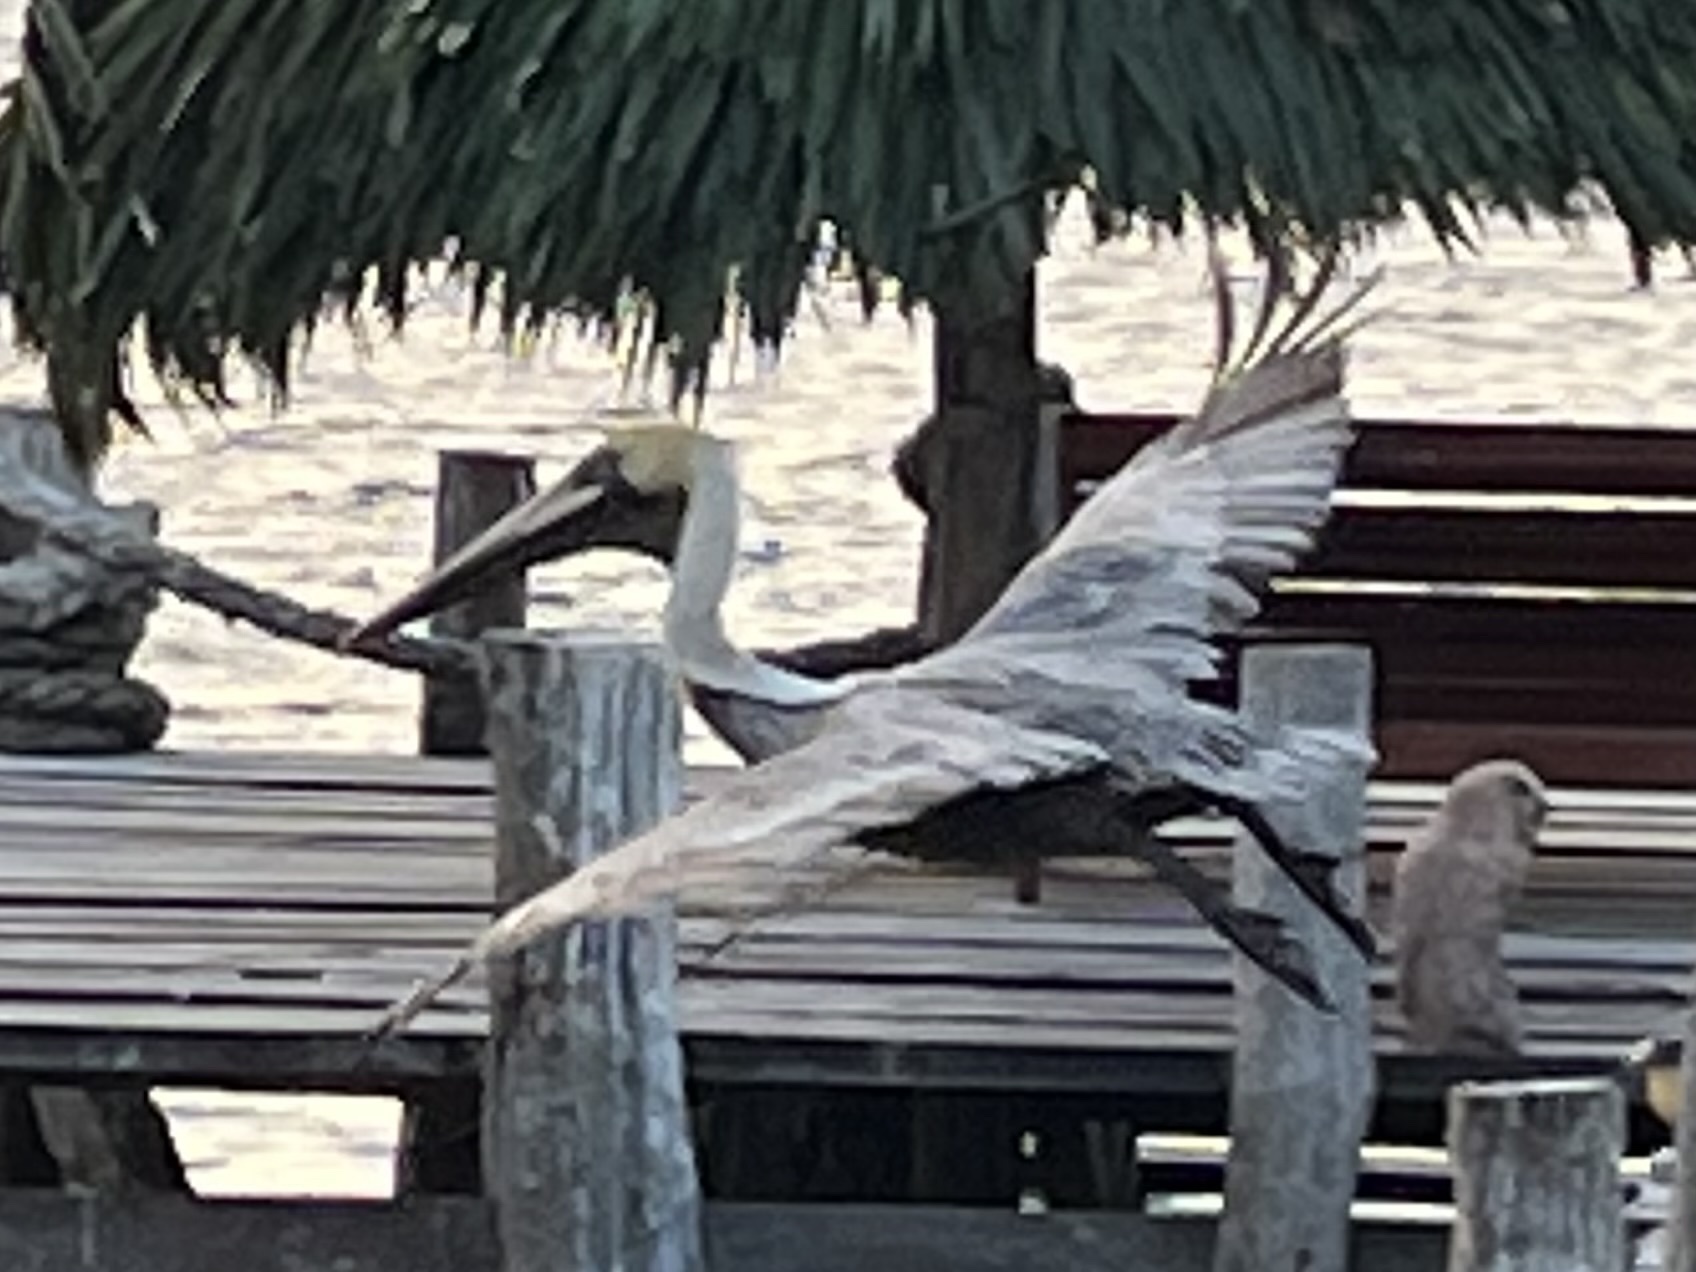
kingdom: Animalia
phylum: Chordata
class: Aves
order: Pelecaniformes
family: Pelecanidae
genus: Pelecanus
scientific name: Pelecanus occidentalis
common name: Brown pelican
